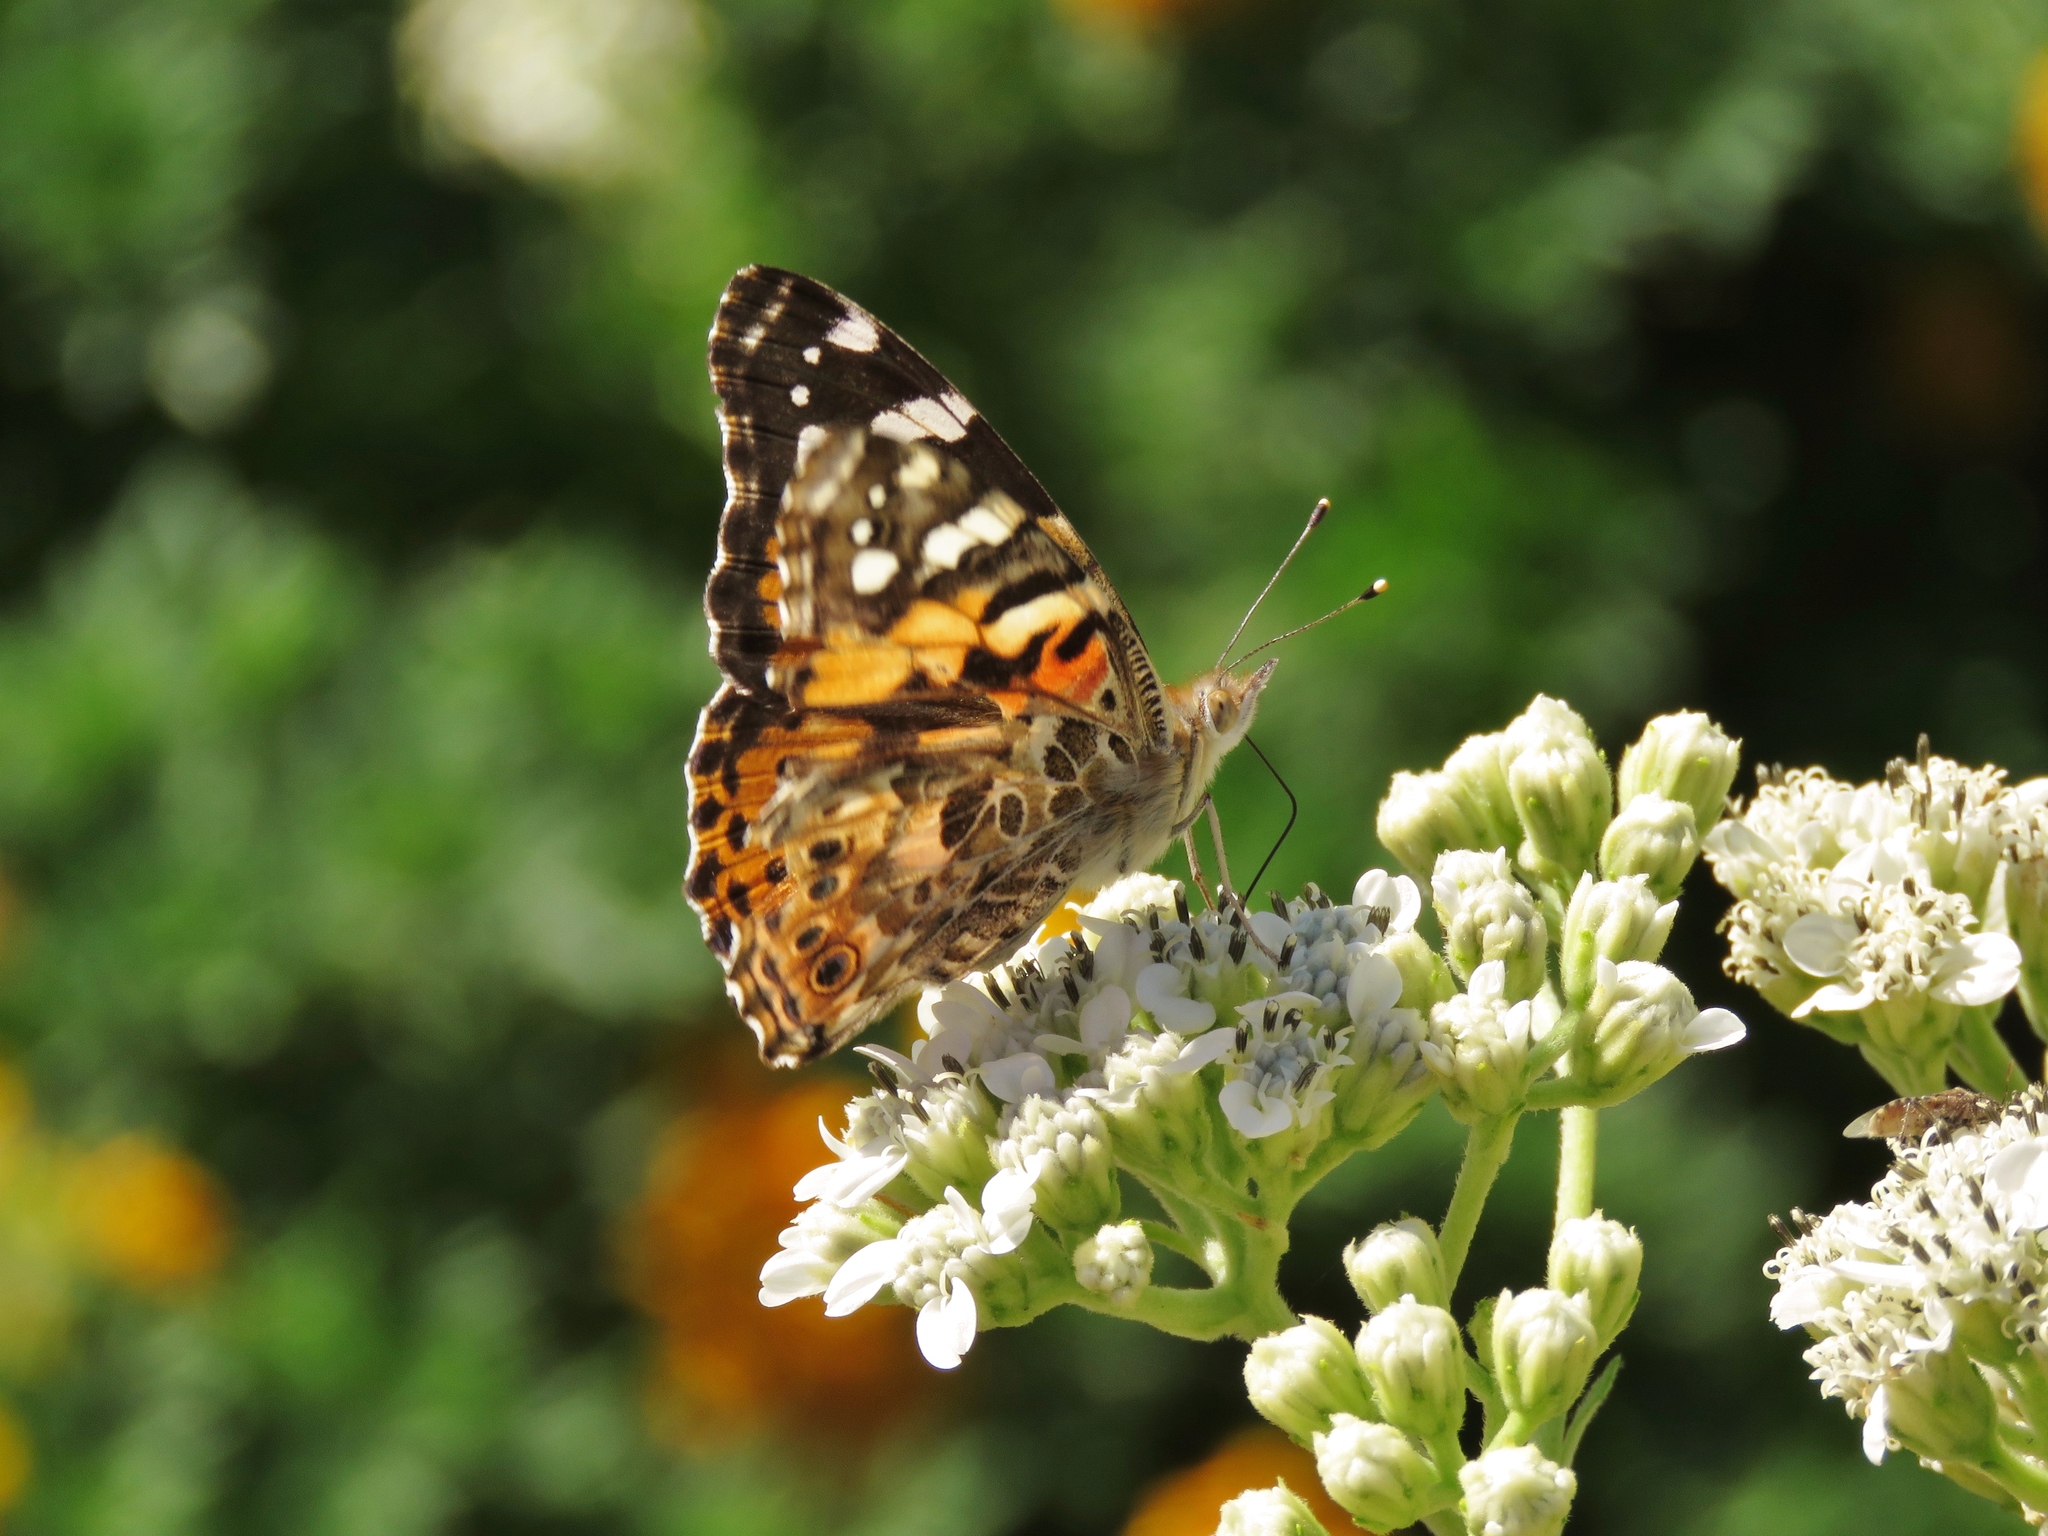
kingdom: Animalia
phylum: Arthropoda
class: Insecta
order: Lepidoptera
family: Nymphalidae
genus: Vanessa
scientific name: Vanessa cardui
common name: Painted lady
